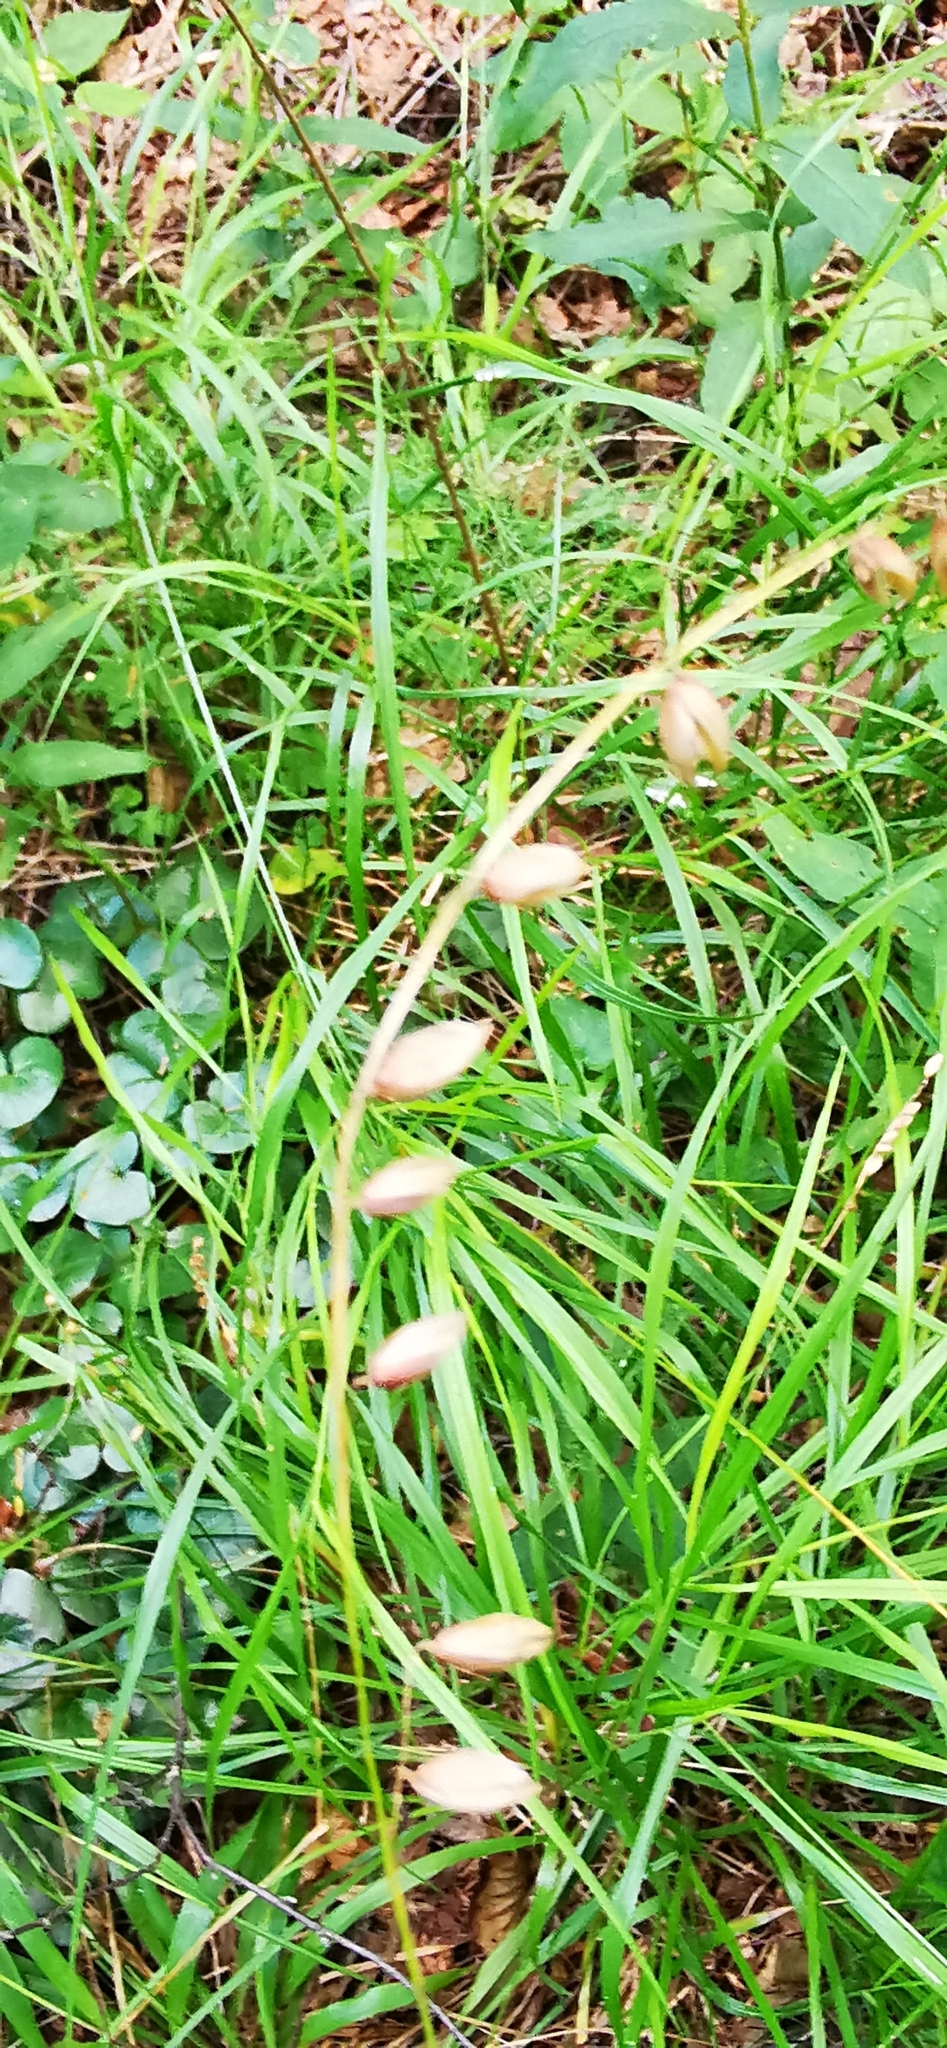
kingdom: Plantae
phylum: Tracheophyta
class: Liliopsida
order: Poales
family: Poaceae
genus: Melica
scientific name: Melica nutans
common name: Mountain melick
